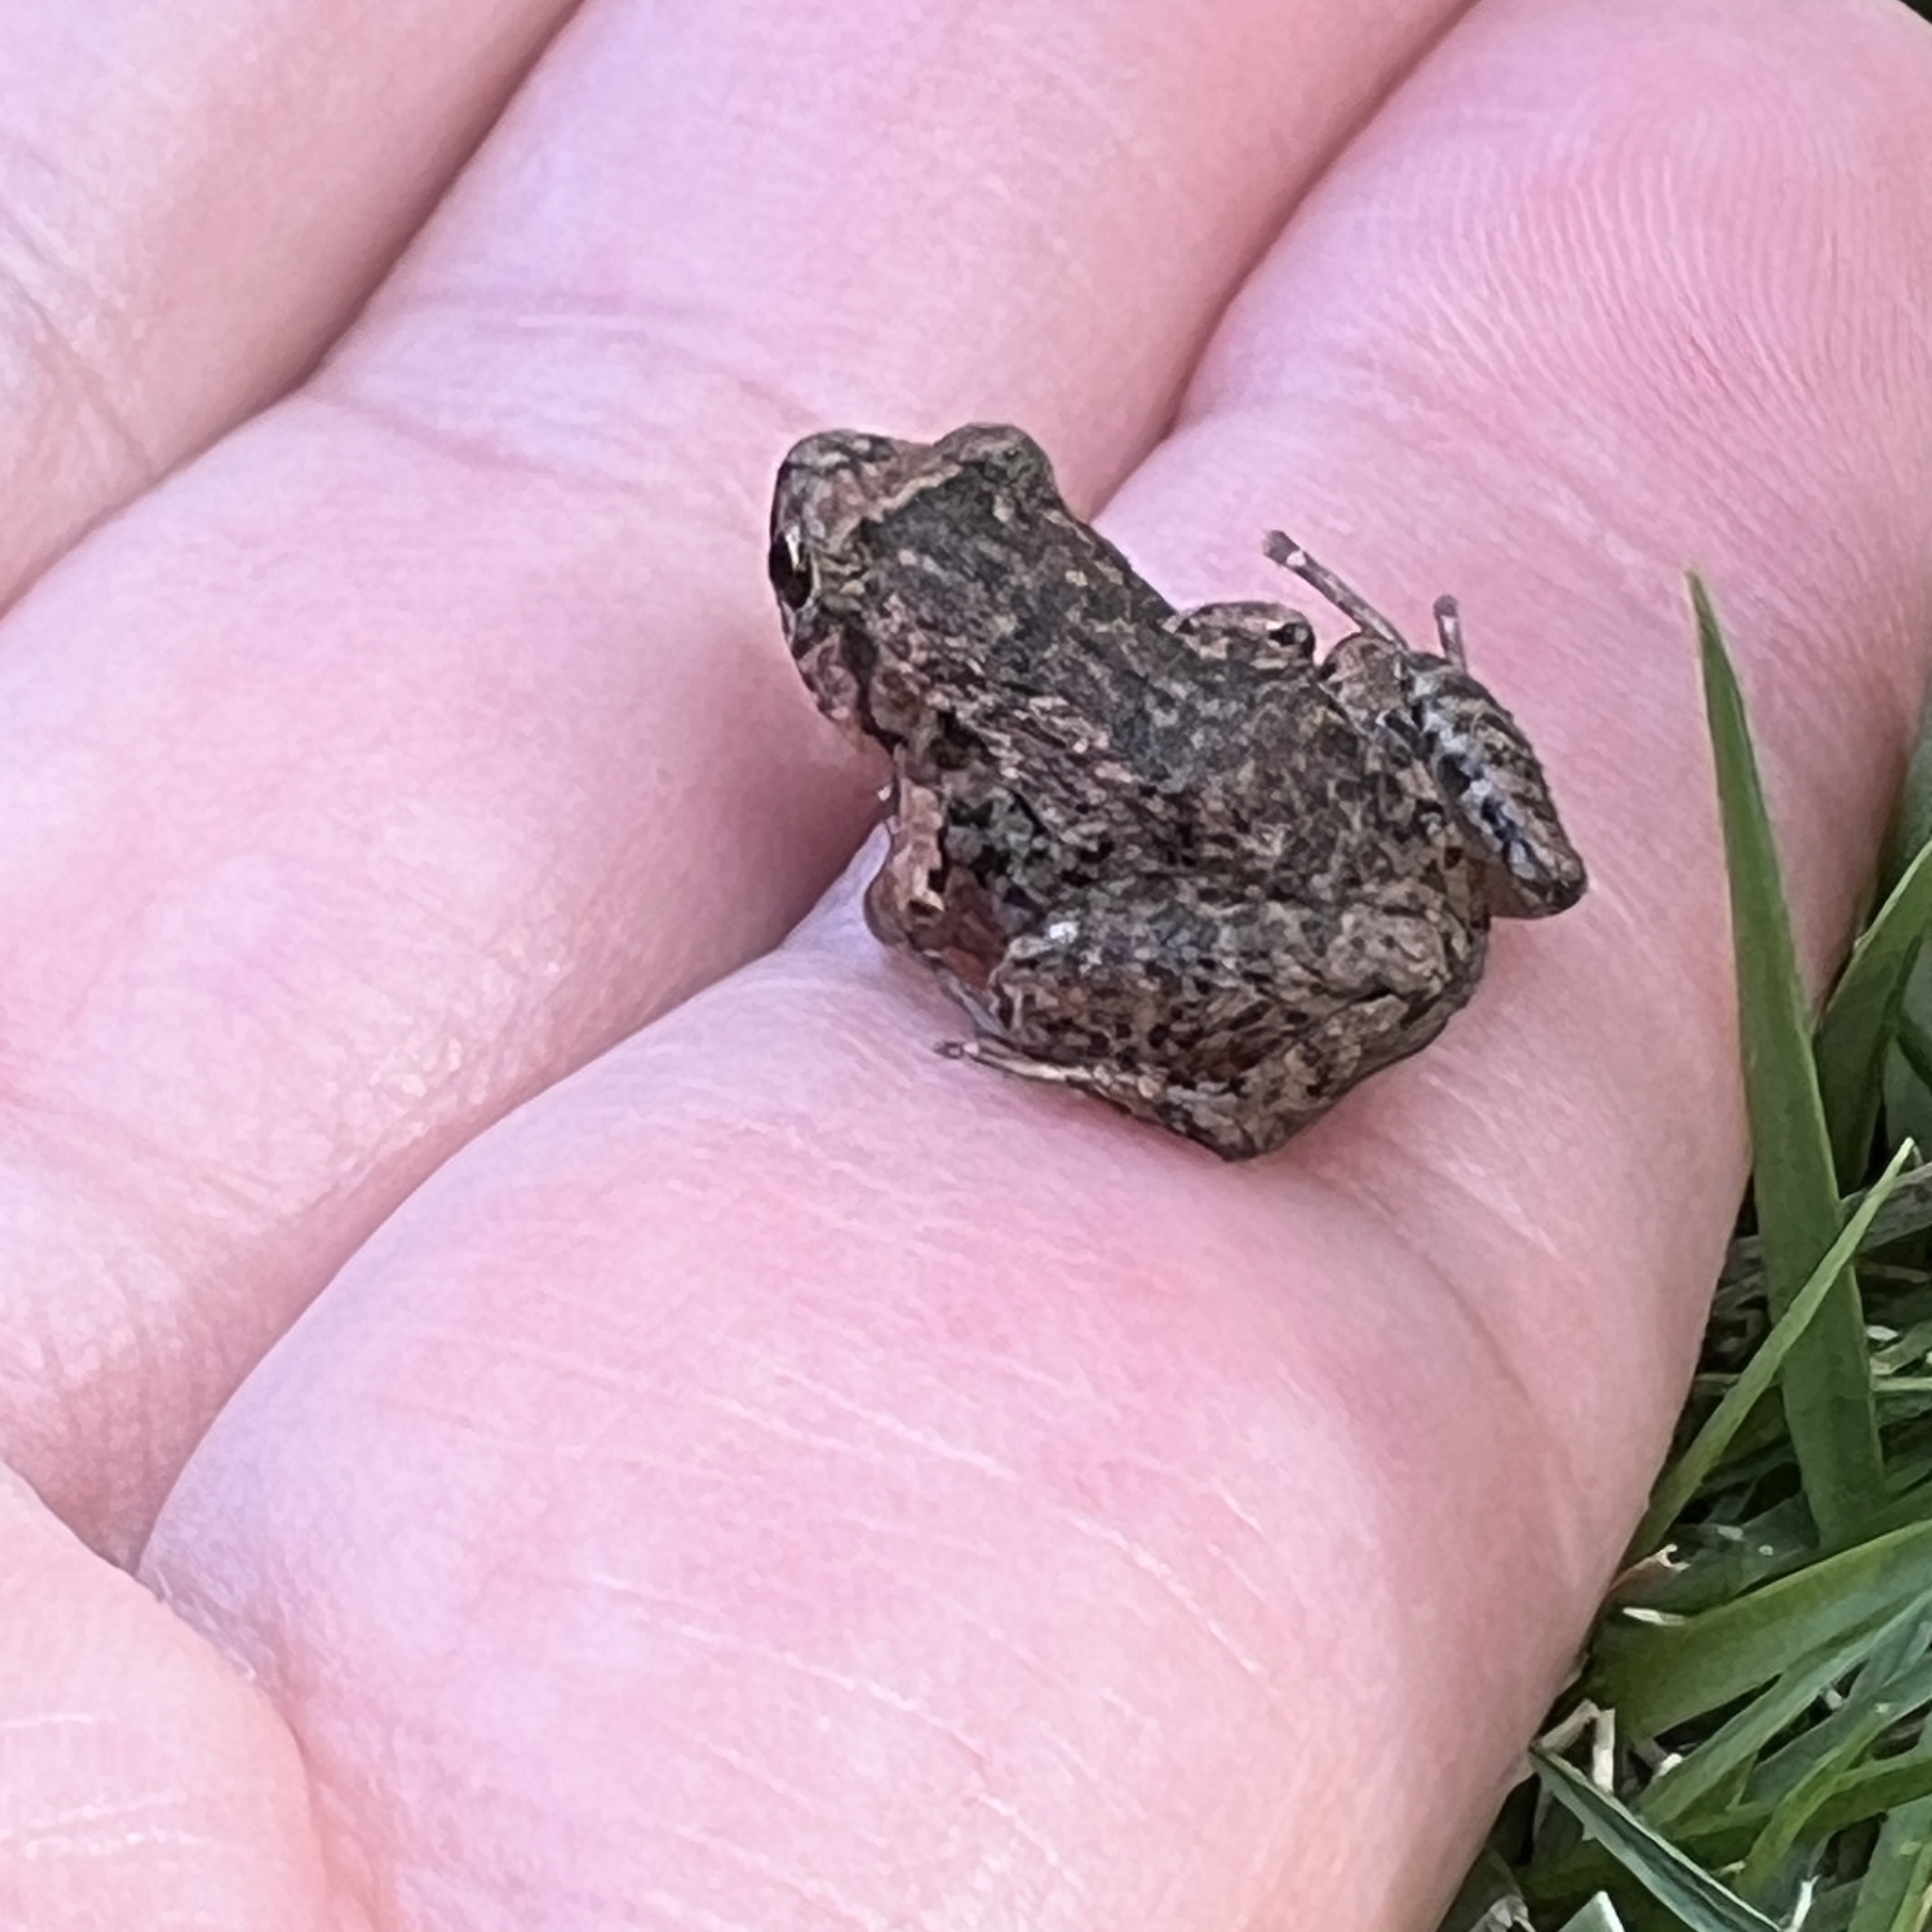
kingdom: Animalia
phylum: Chordata
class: Amphibia
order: Anura
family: Eleutherodactylidae
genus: Eleutherodactylus
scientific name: Eleutherodactylus planirostris
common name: Greenhouse frog
